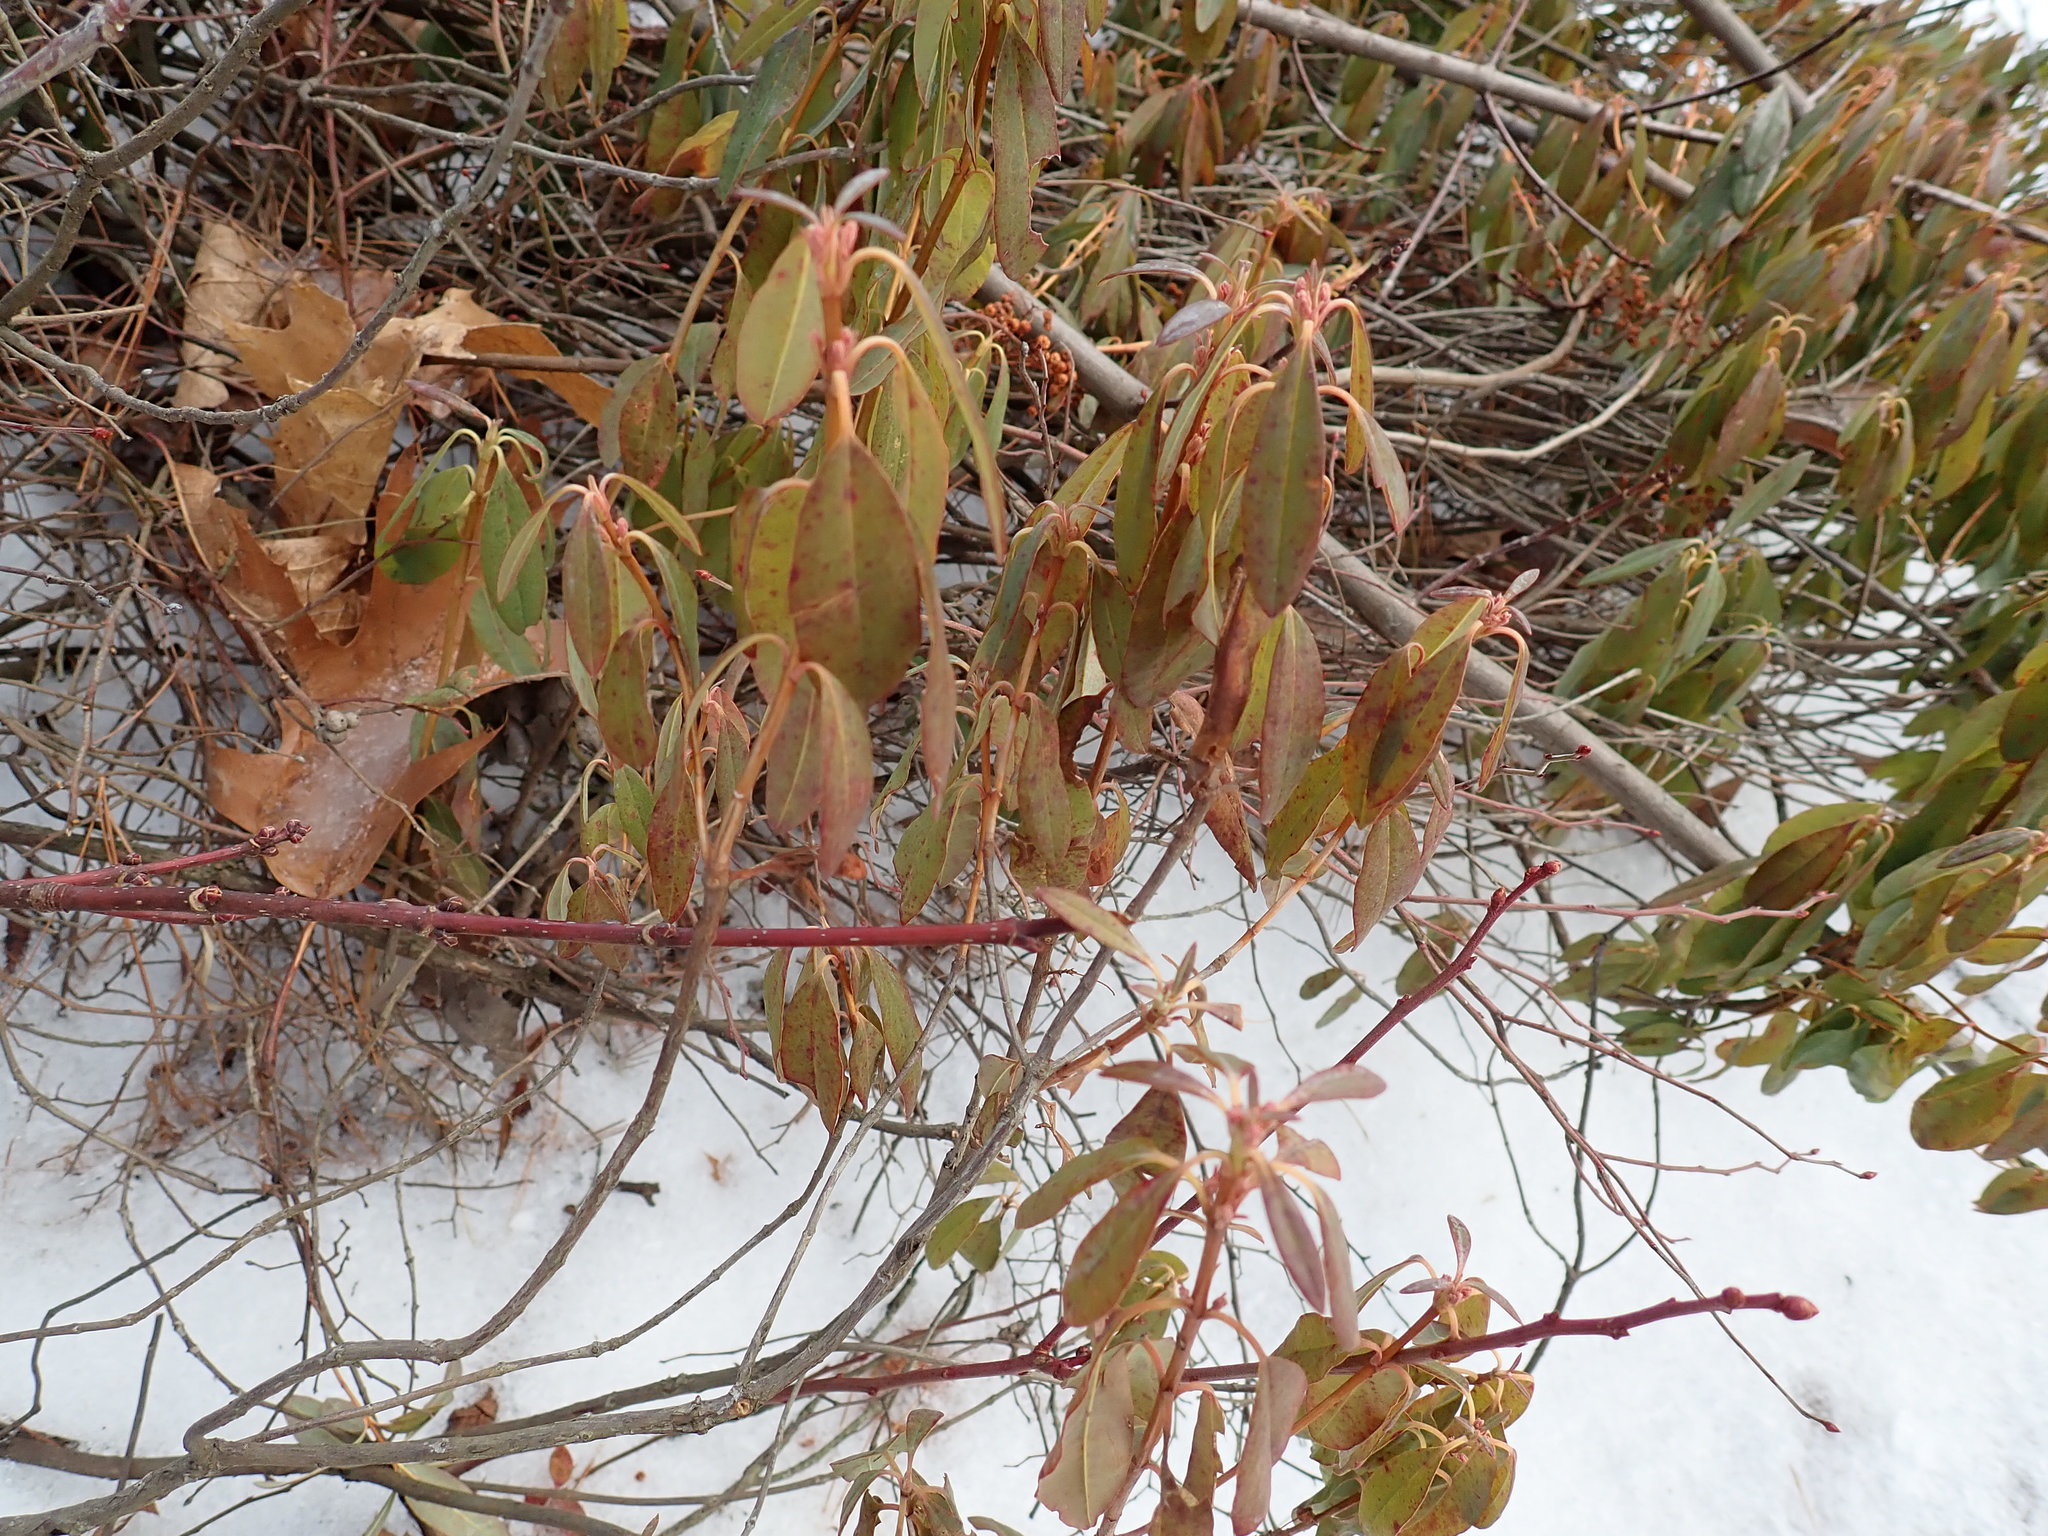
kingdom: Plantae
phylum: Tracheophyta
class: Magnoliopsida
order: Ericales
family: Ericaceae
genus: Kalmia
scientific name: Kalmia angustifolia
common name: Sheep-laurel
